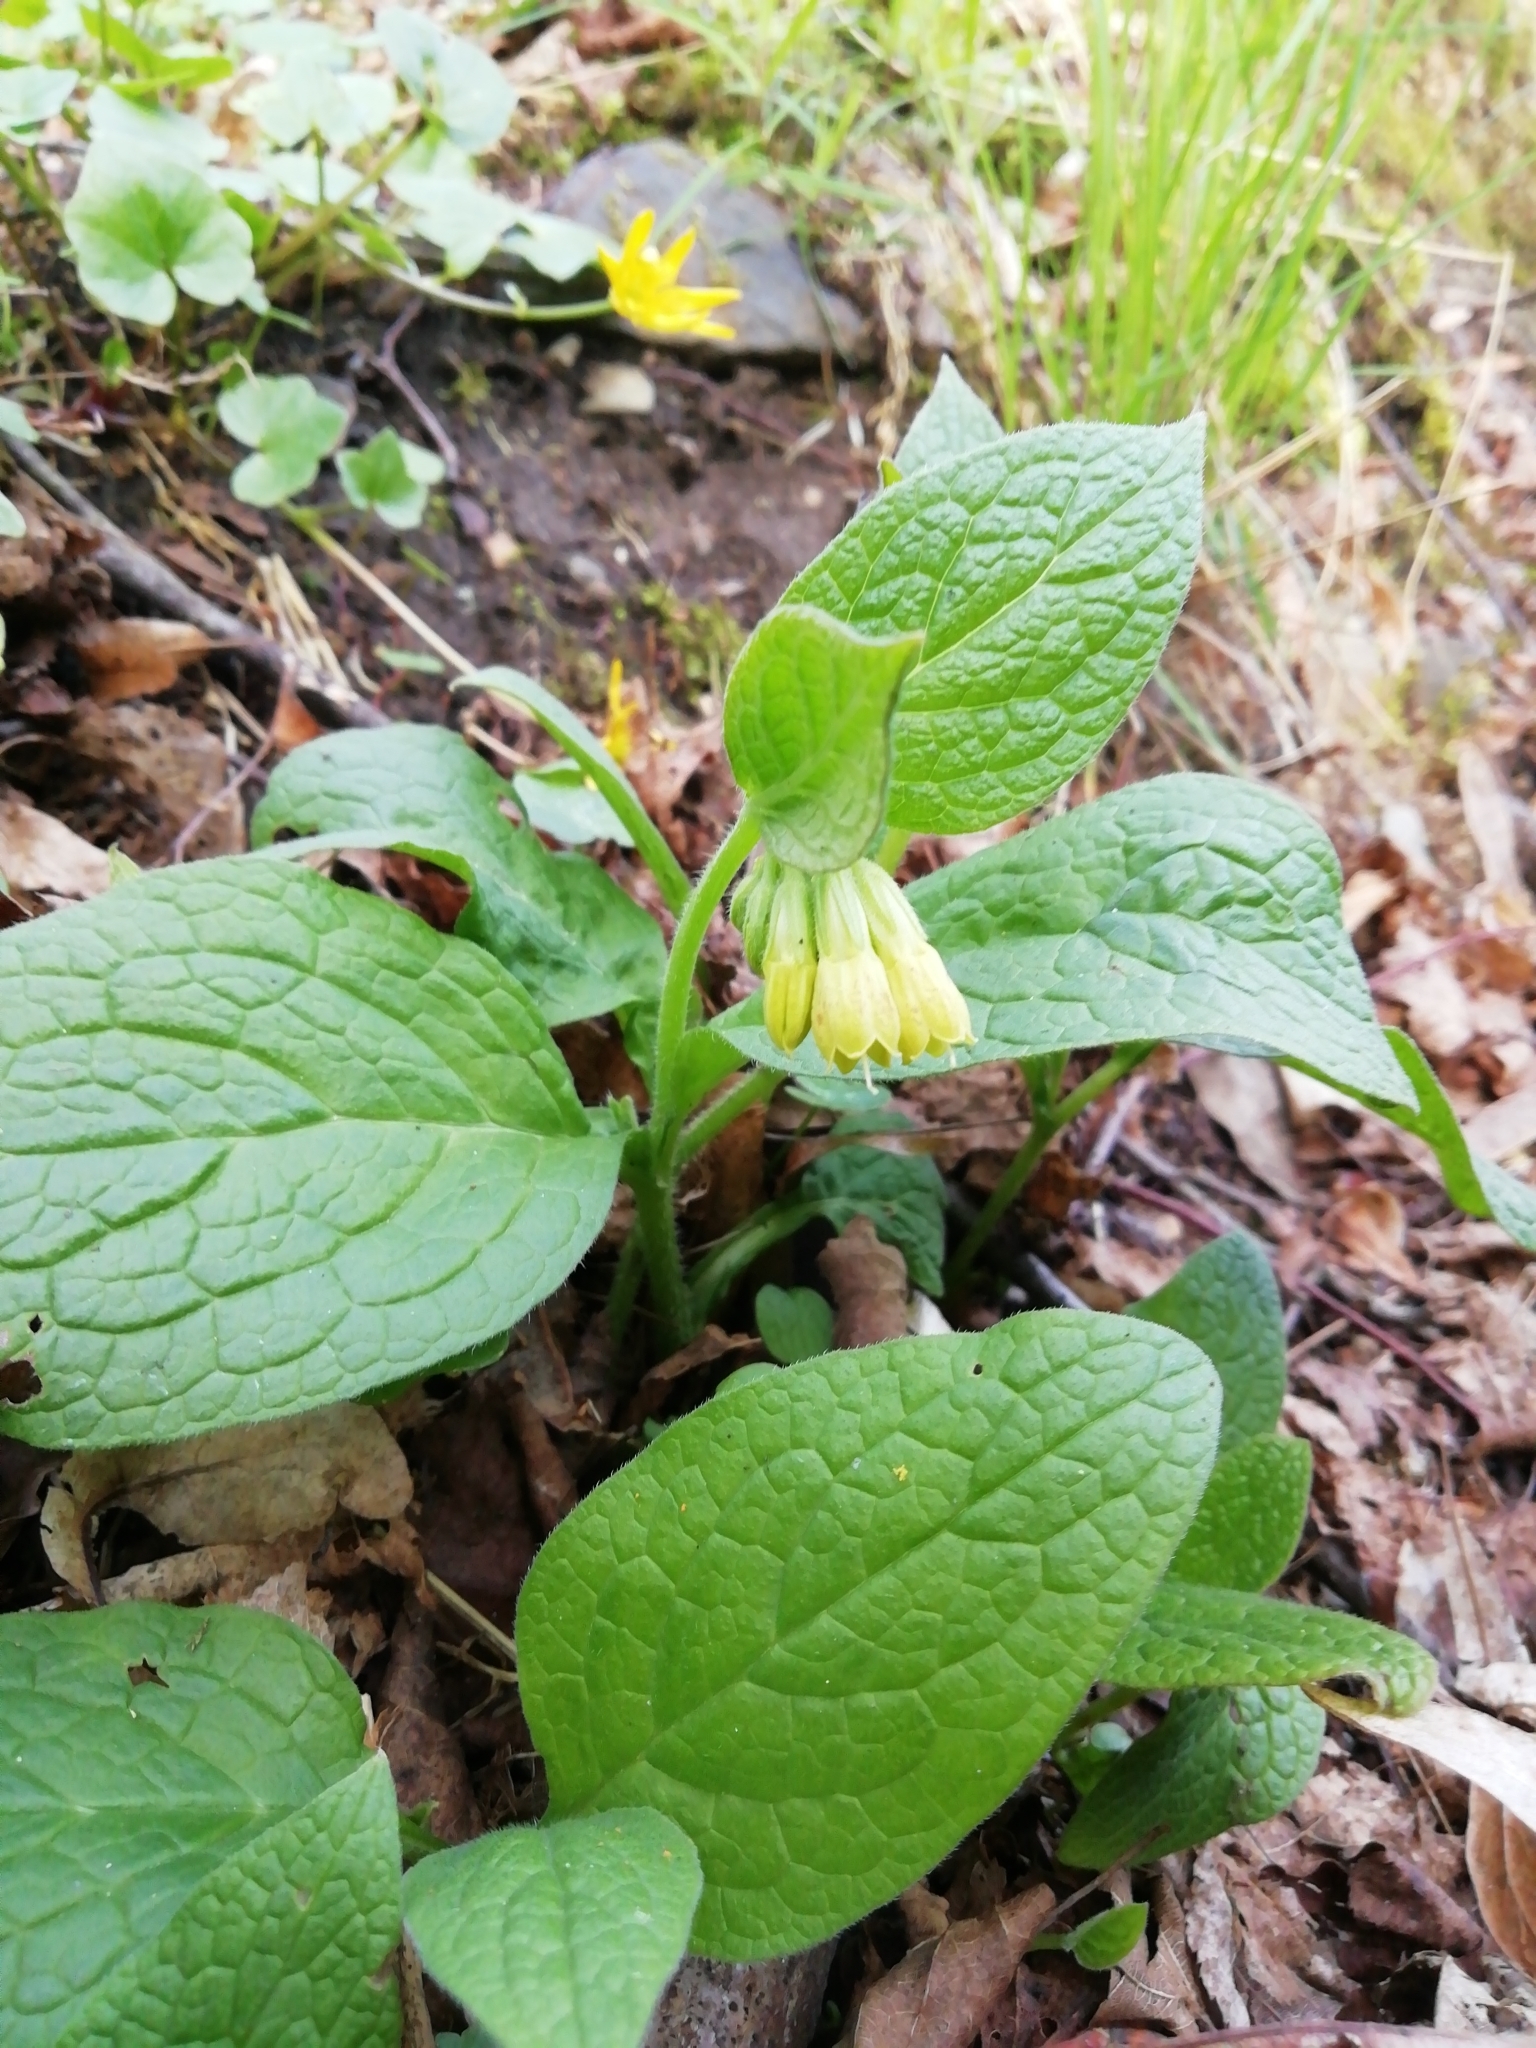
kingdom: Plantae
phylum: Tracheophyta
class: Magnoliopsida
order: Boraginales
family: Boraginaceae
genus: Symphytum
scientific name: Symphytum tuberosum
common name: Tuberous comfrey
